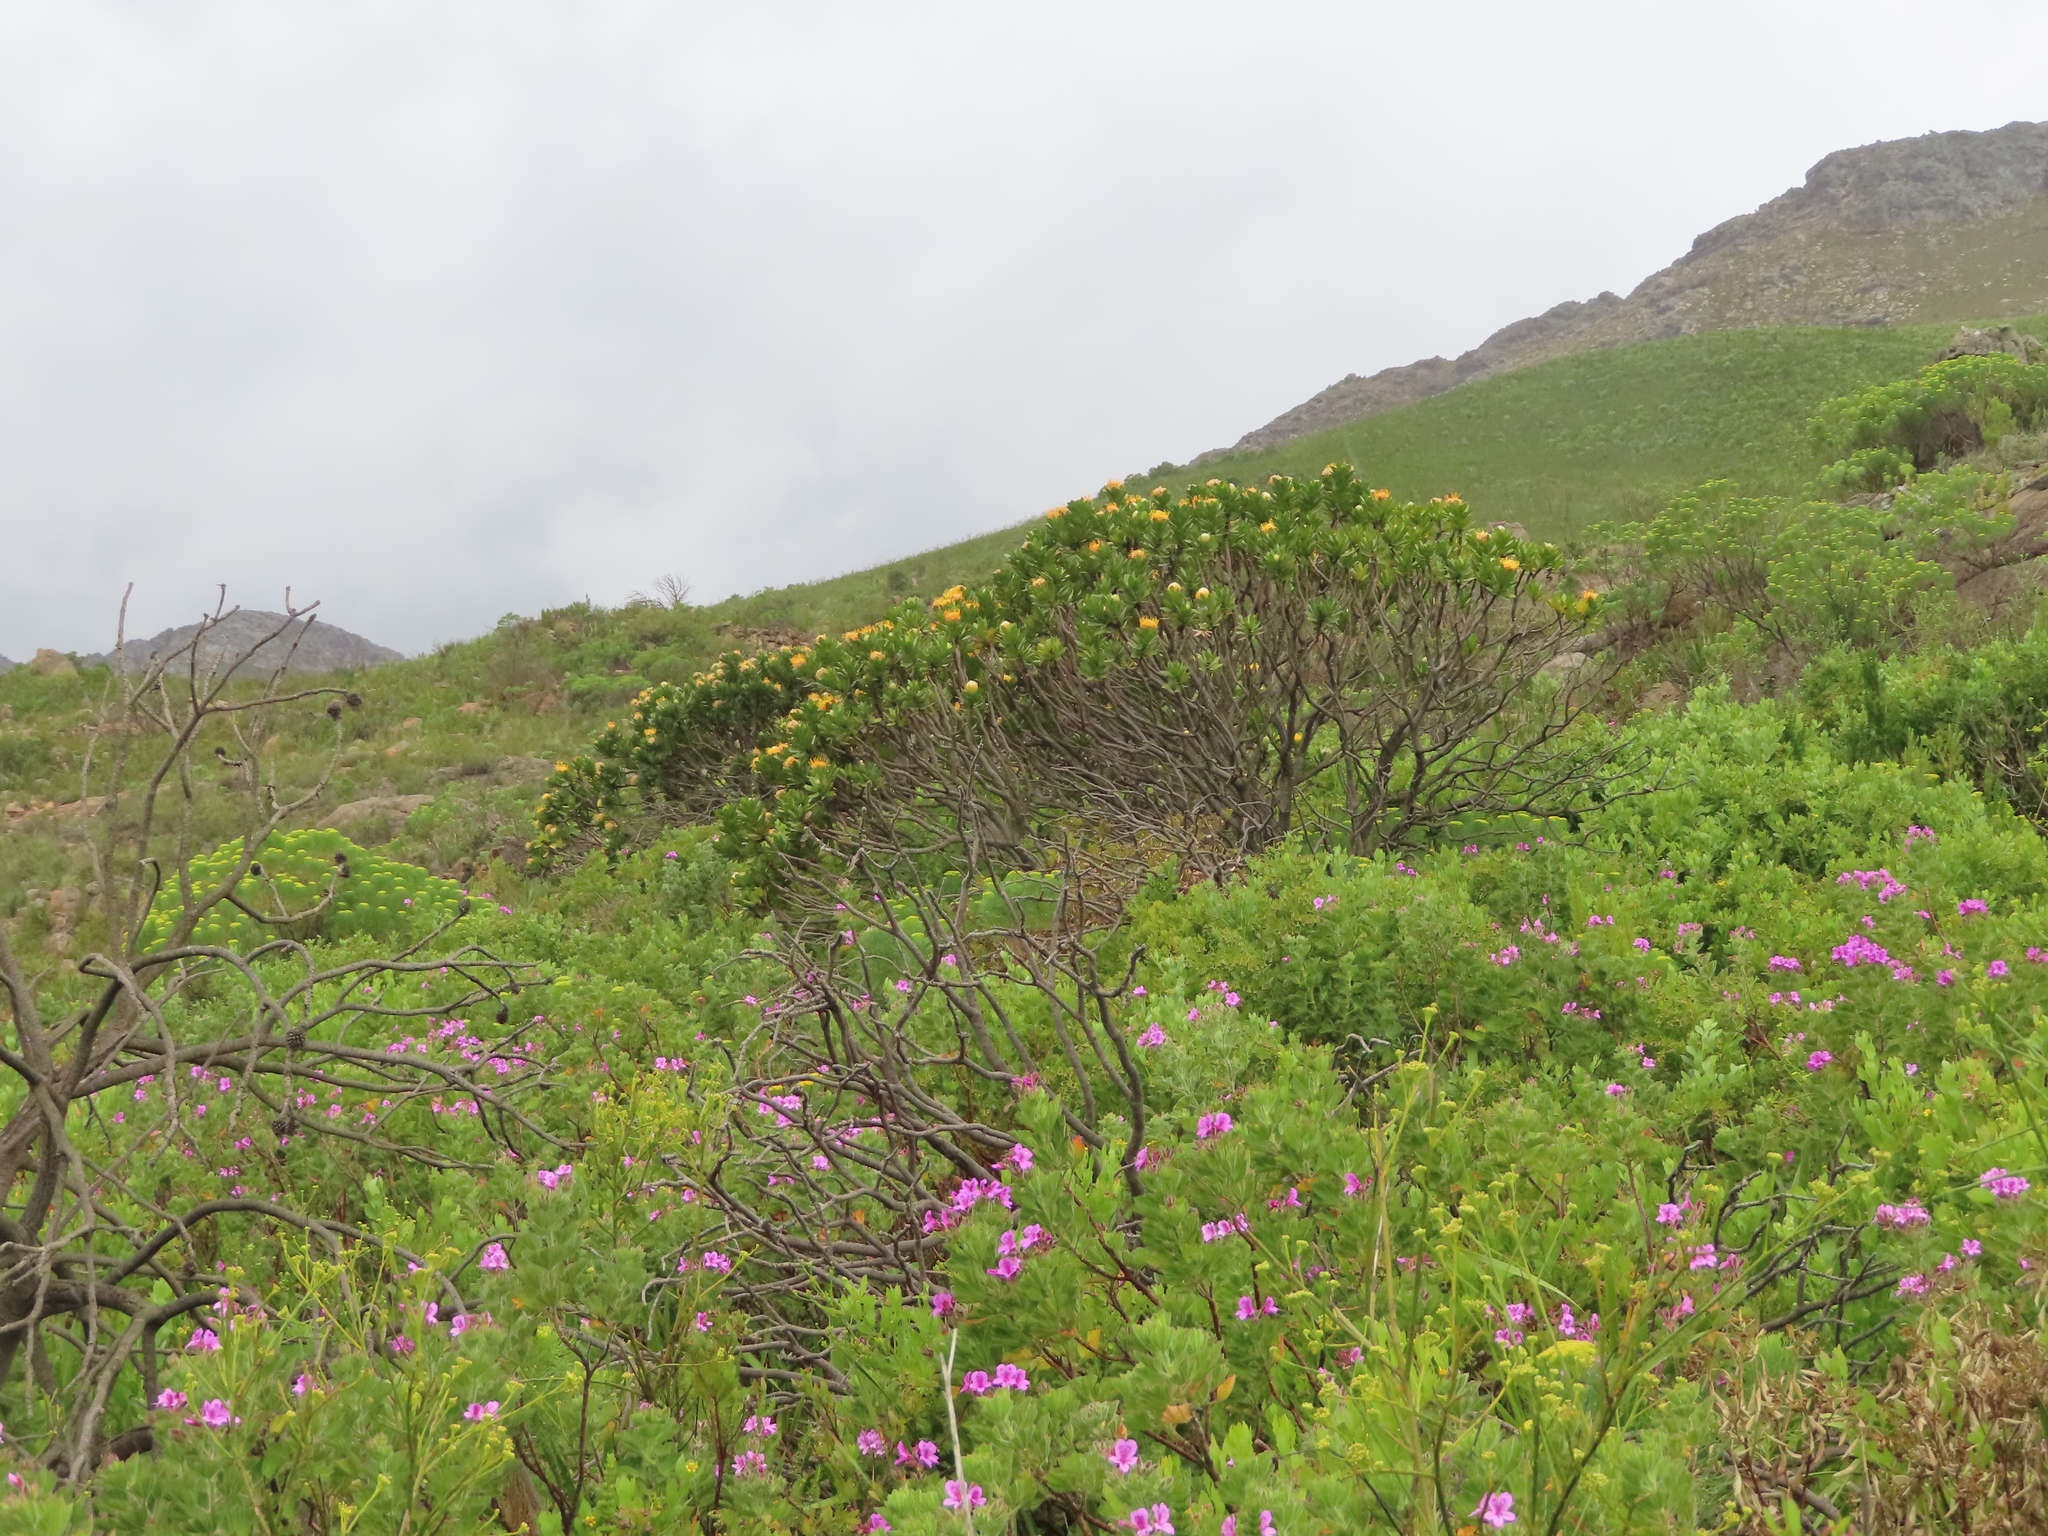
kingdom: Plantae
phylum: Tracheophyta
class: Magnoliopsida
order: Proteales
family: Proteaceae
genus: Leucospermum
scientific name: Leucospermum conocarpodendron
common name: Tree pincushion
